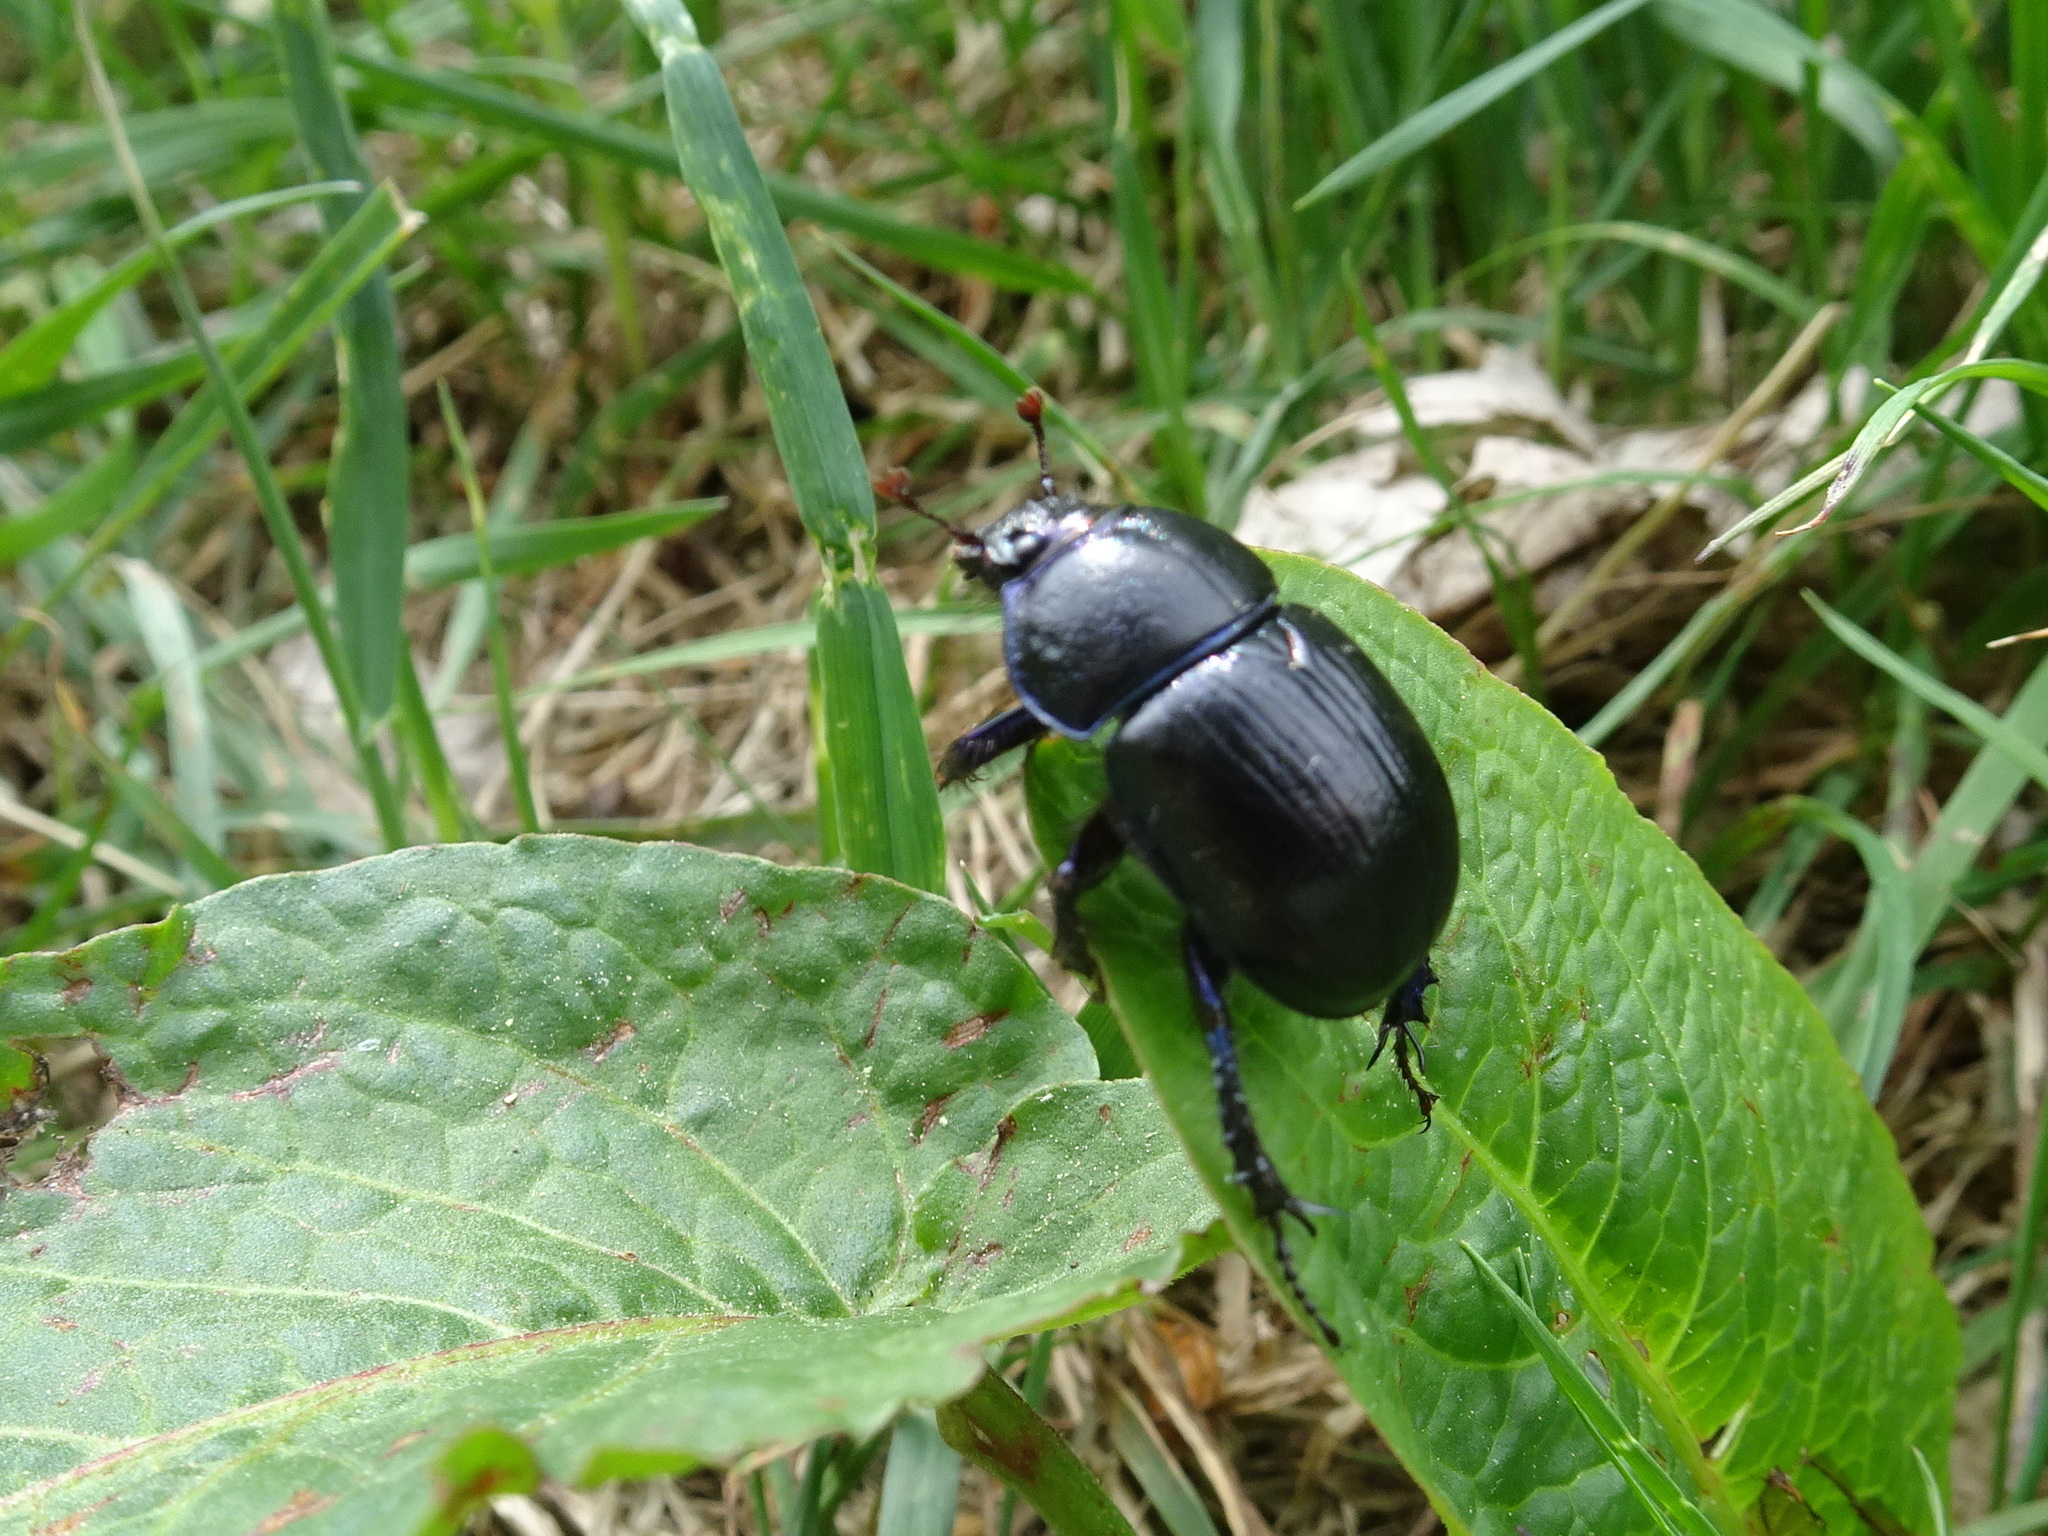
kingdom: Animalia
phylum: Arthropoda
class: Insecta
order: Coleoptera
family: Geotrupidae
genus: Anoplotrupes
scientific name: Anoplotrupes stercorosus
